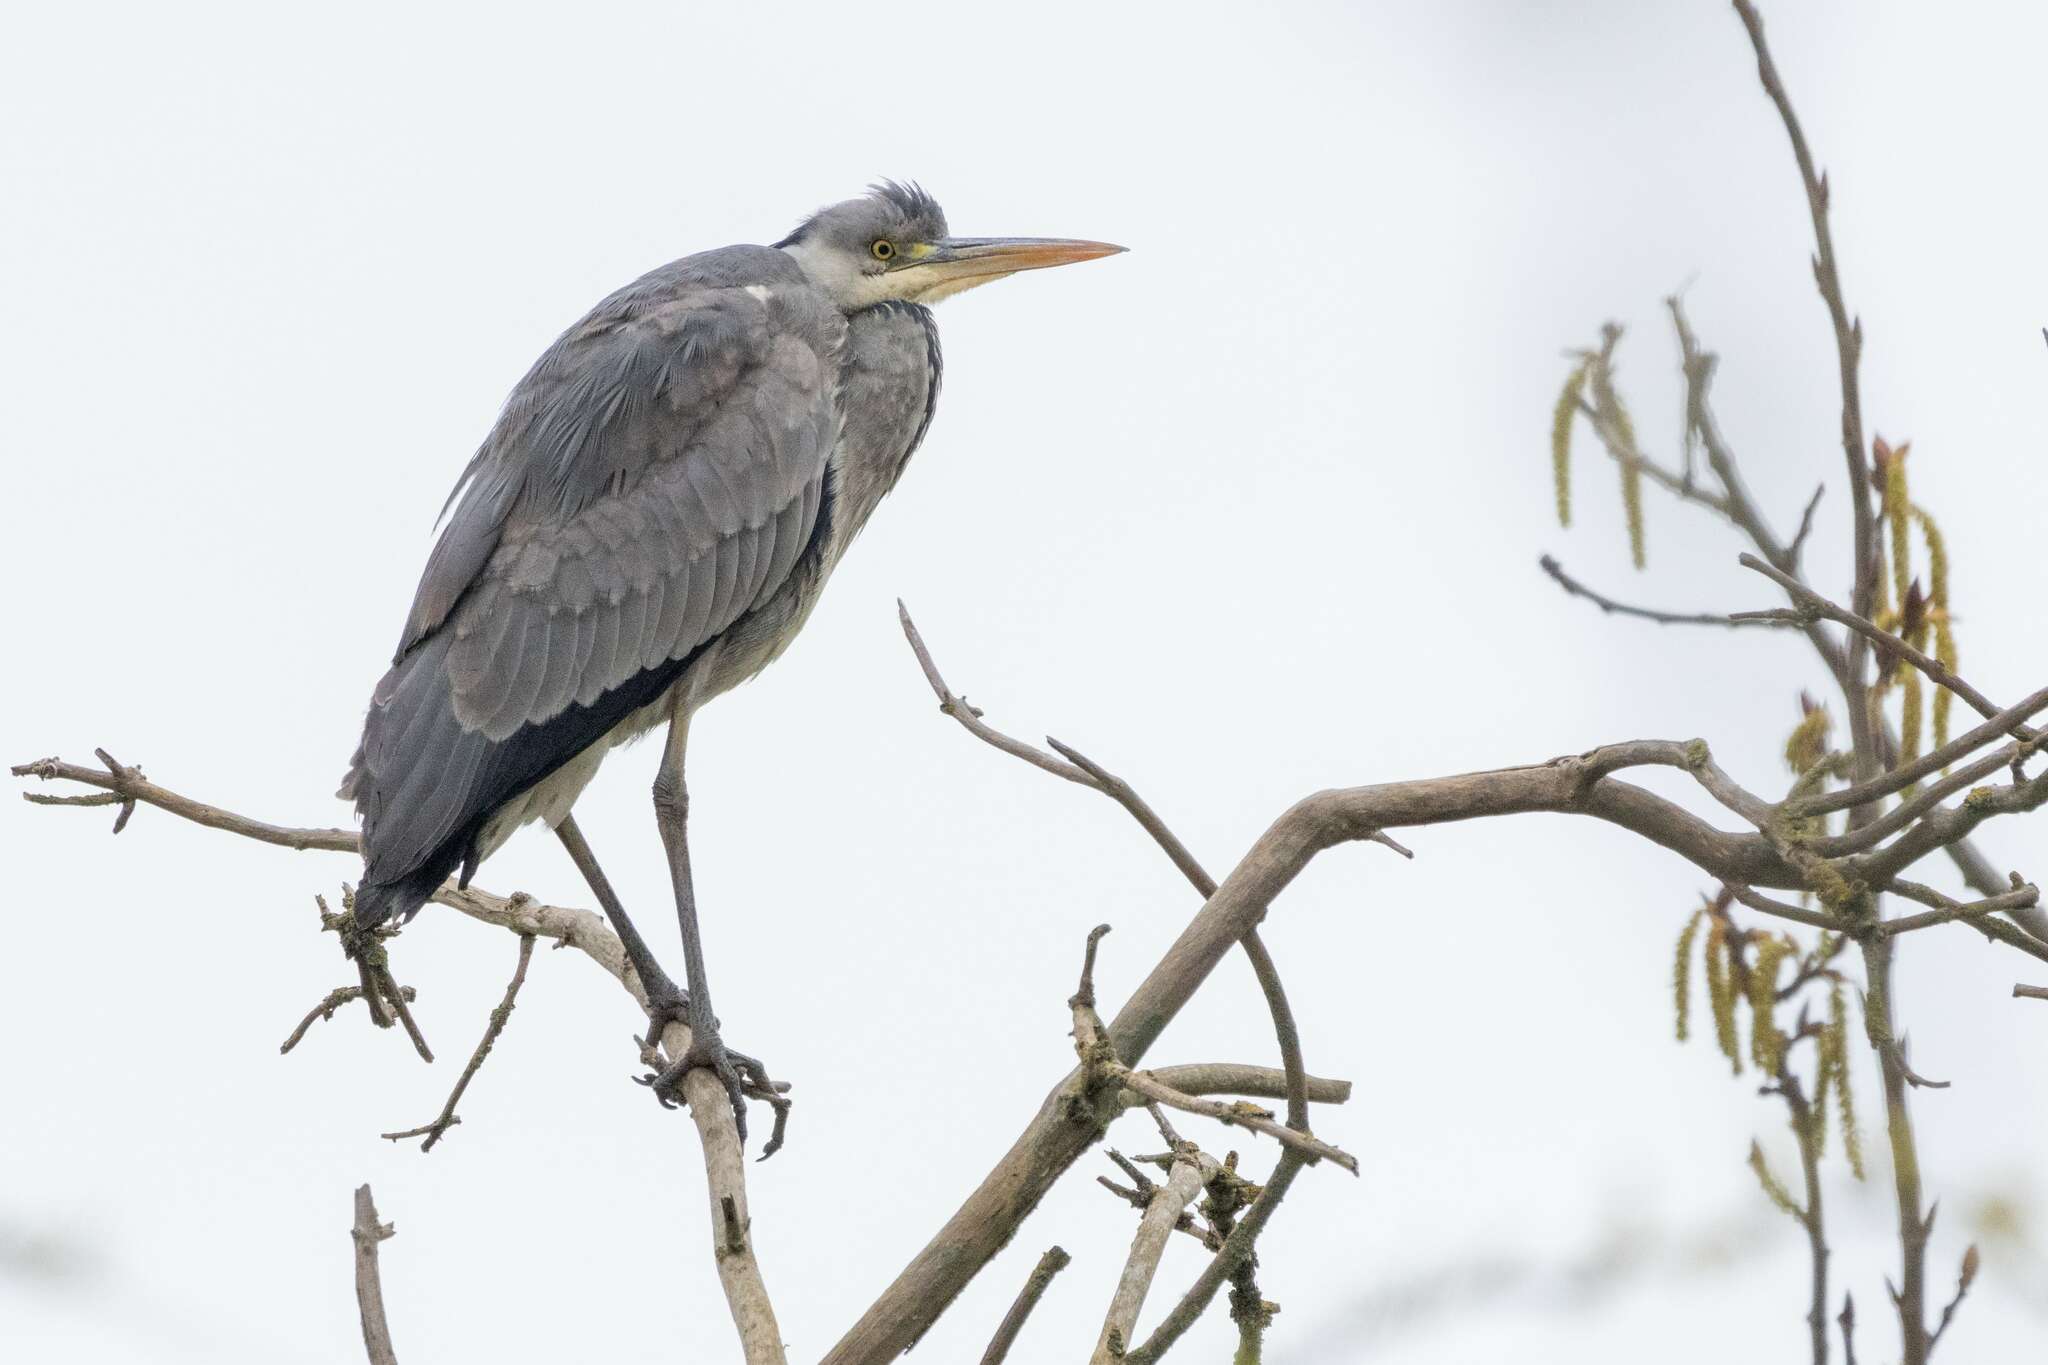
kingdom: Animalia
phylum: Chordata
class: Aves
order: Pelecaniformes
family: Ardeidae
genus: Ardea
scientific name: Ardea cinerea
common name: Grey heron
